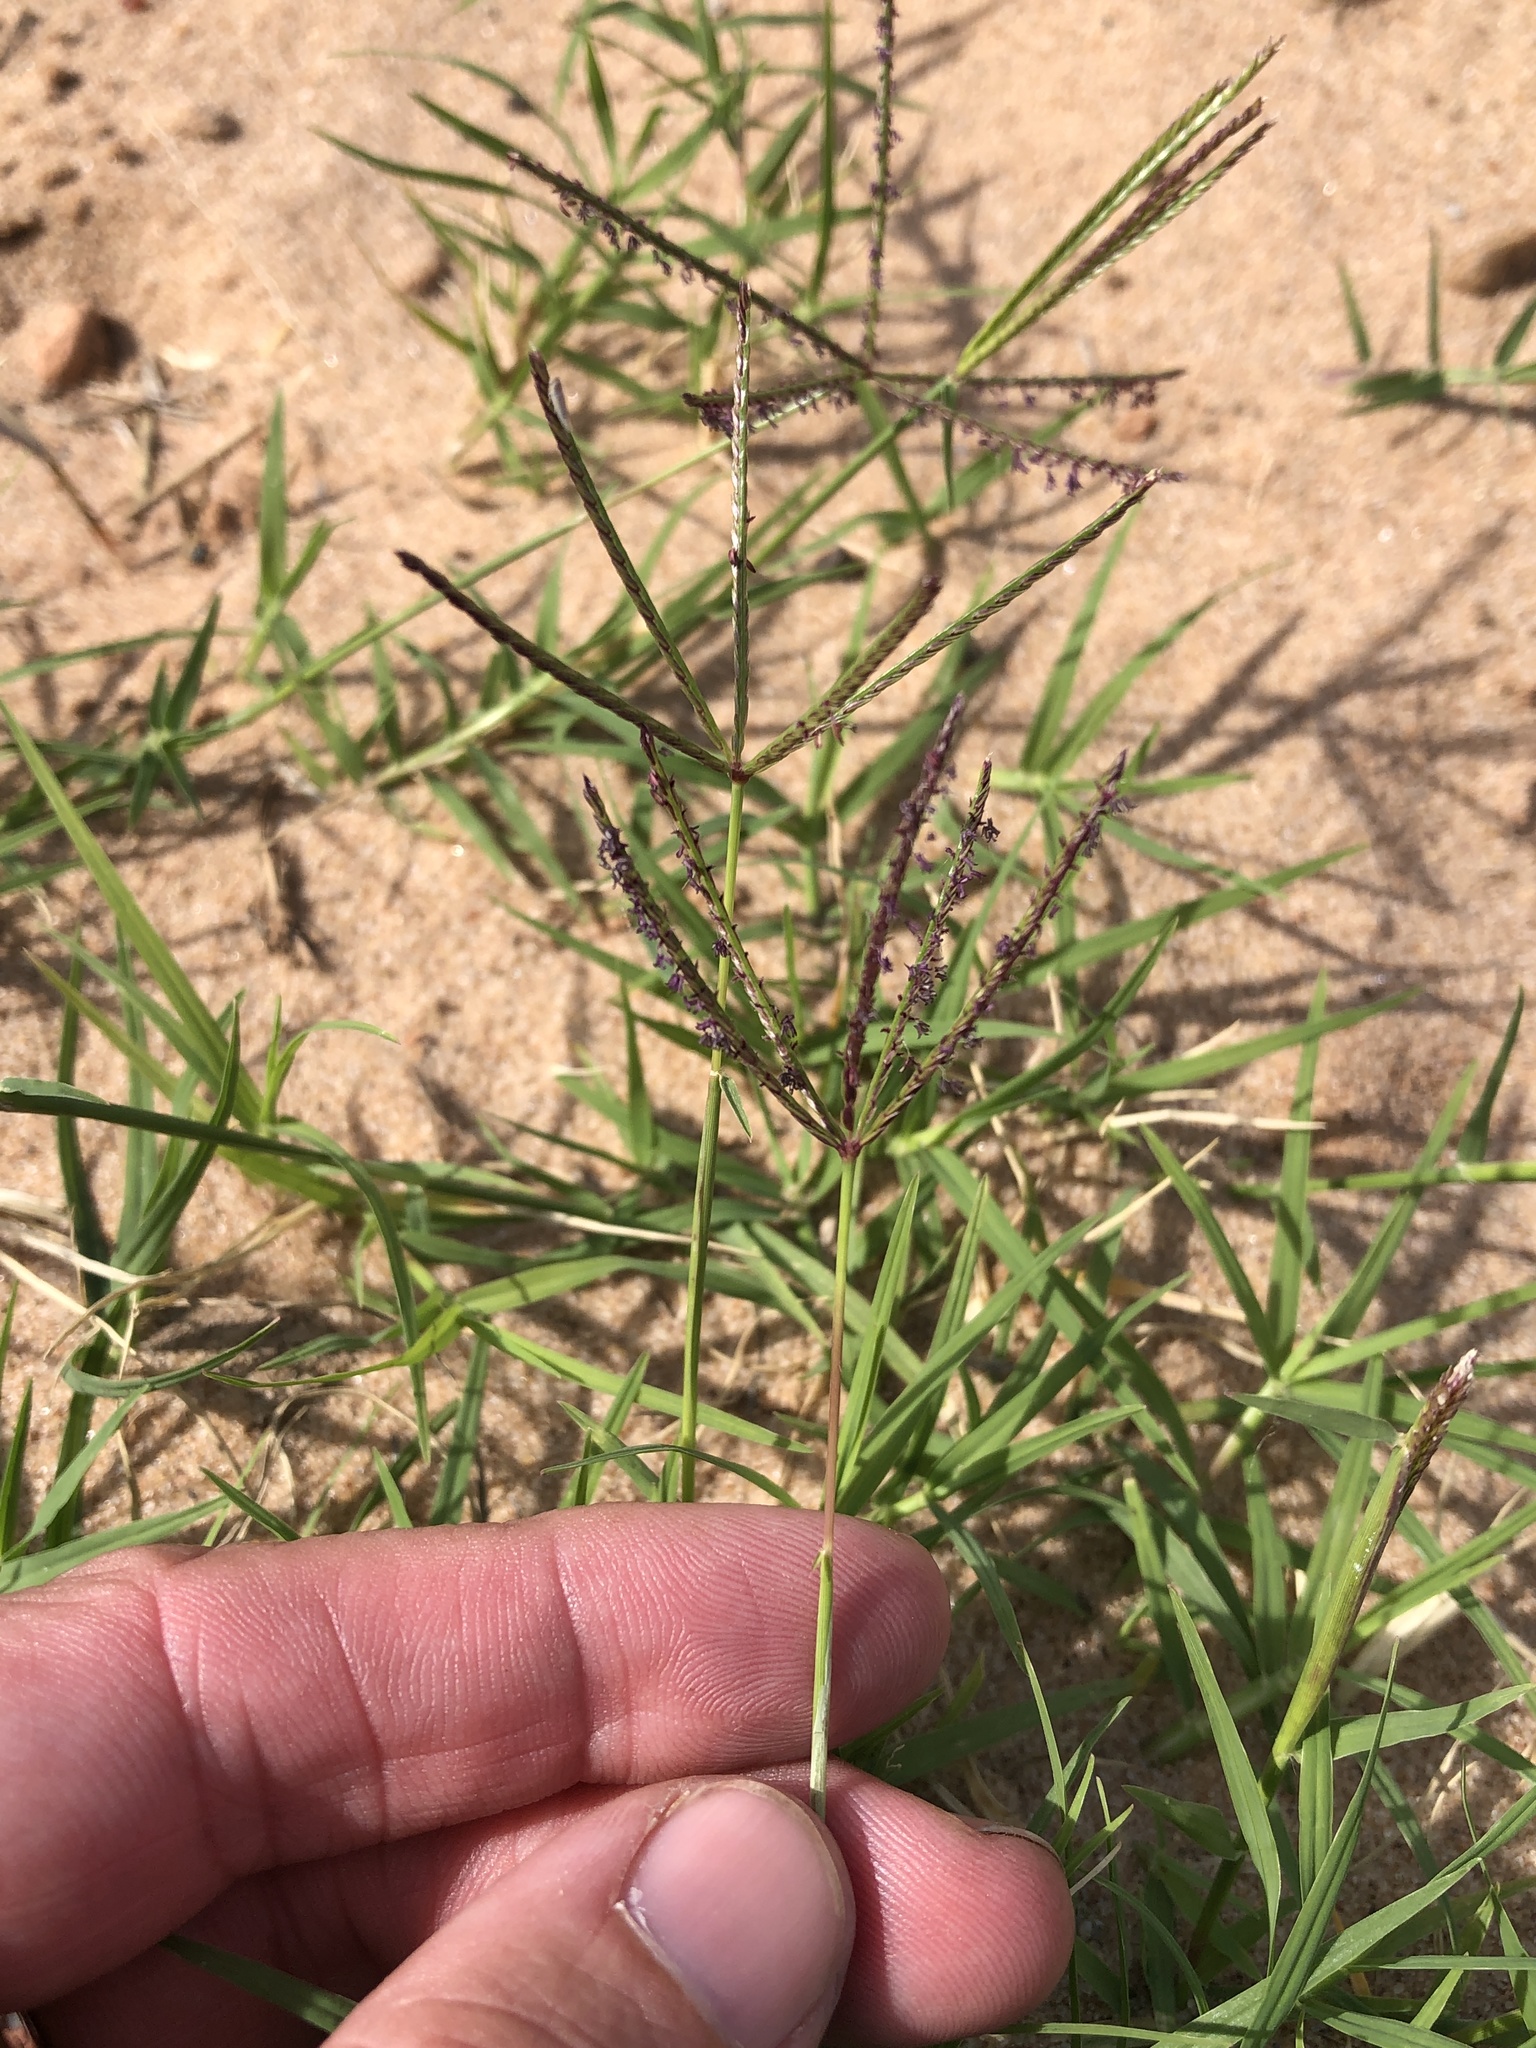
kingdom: Plantae
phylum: Tracheophyta
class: Liliopsida
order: Poales
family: Poaceae
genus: Cynodon
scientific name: Cynodon dactylon
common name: Bermuda grass
